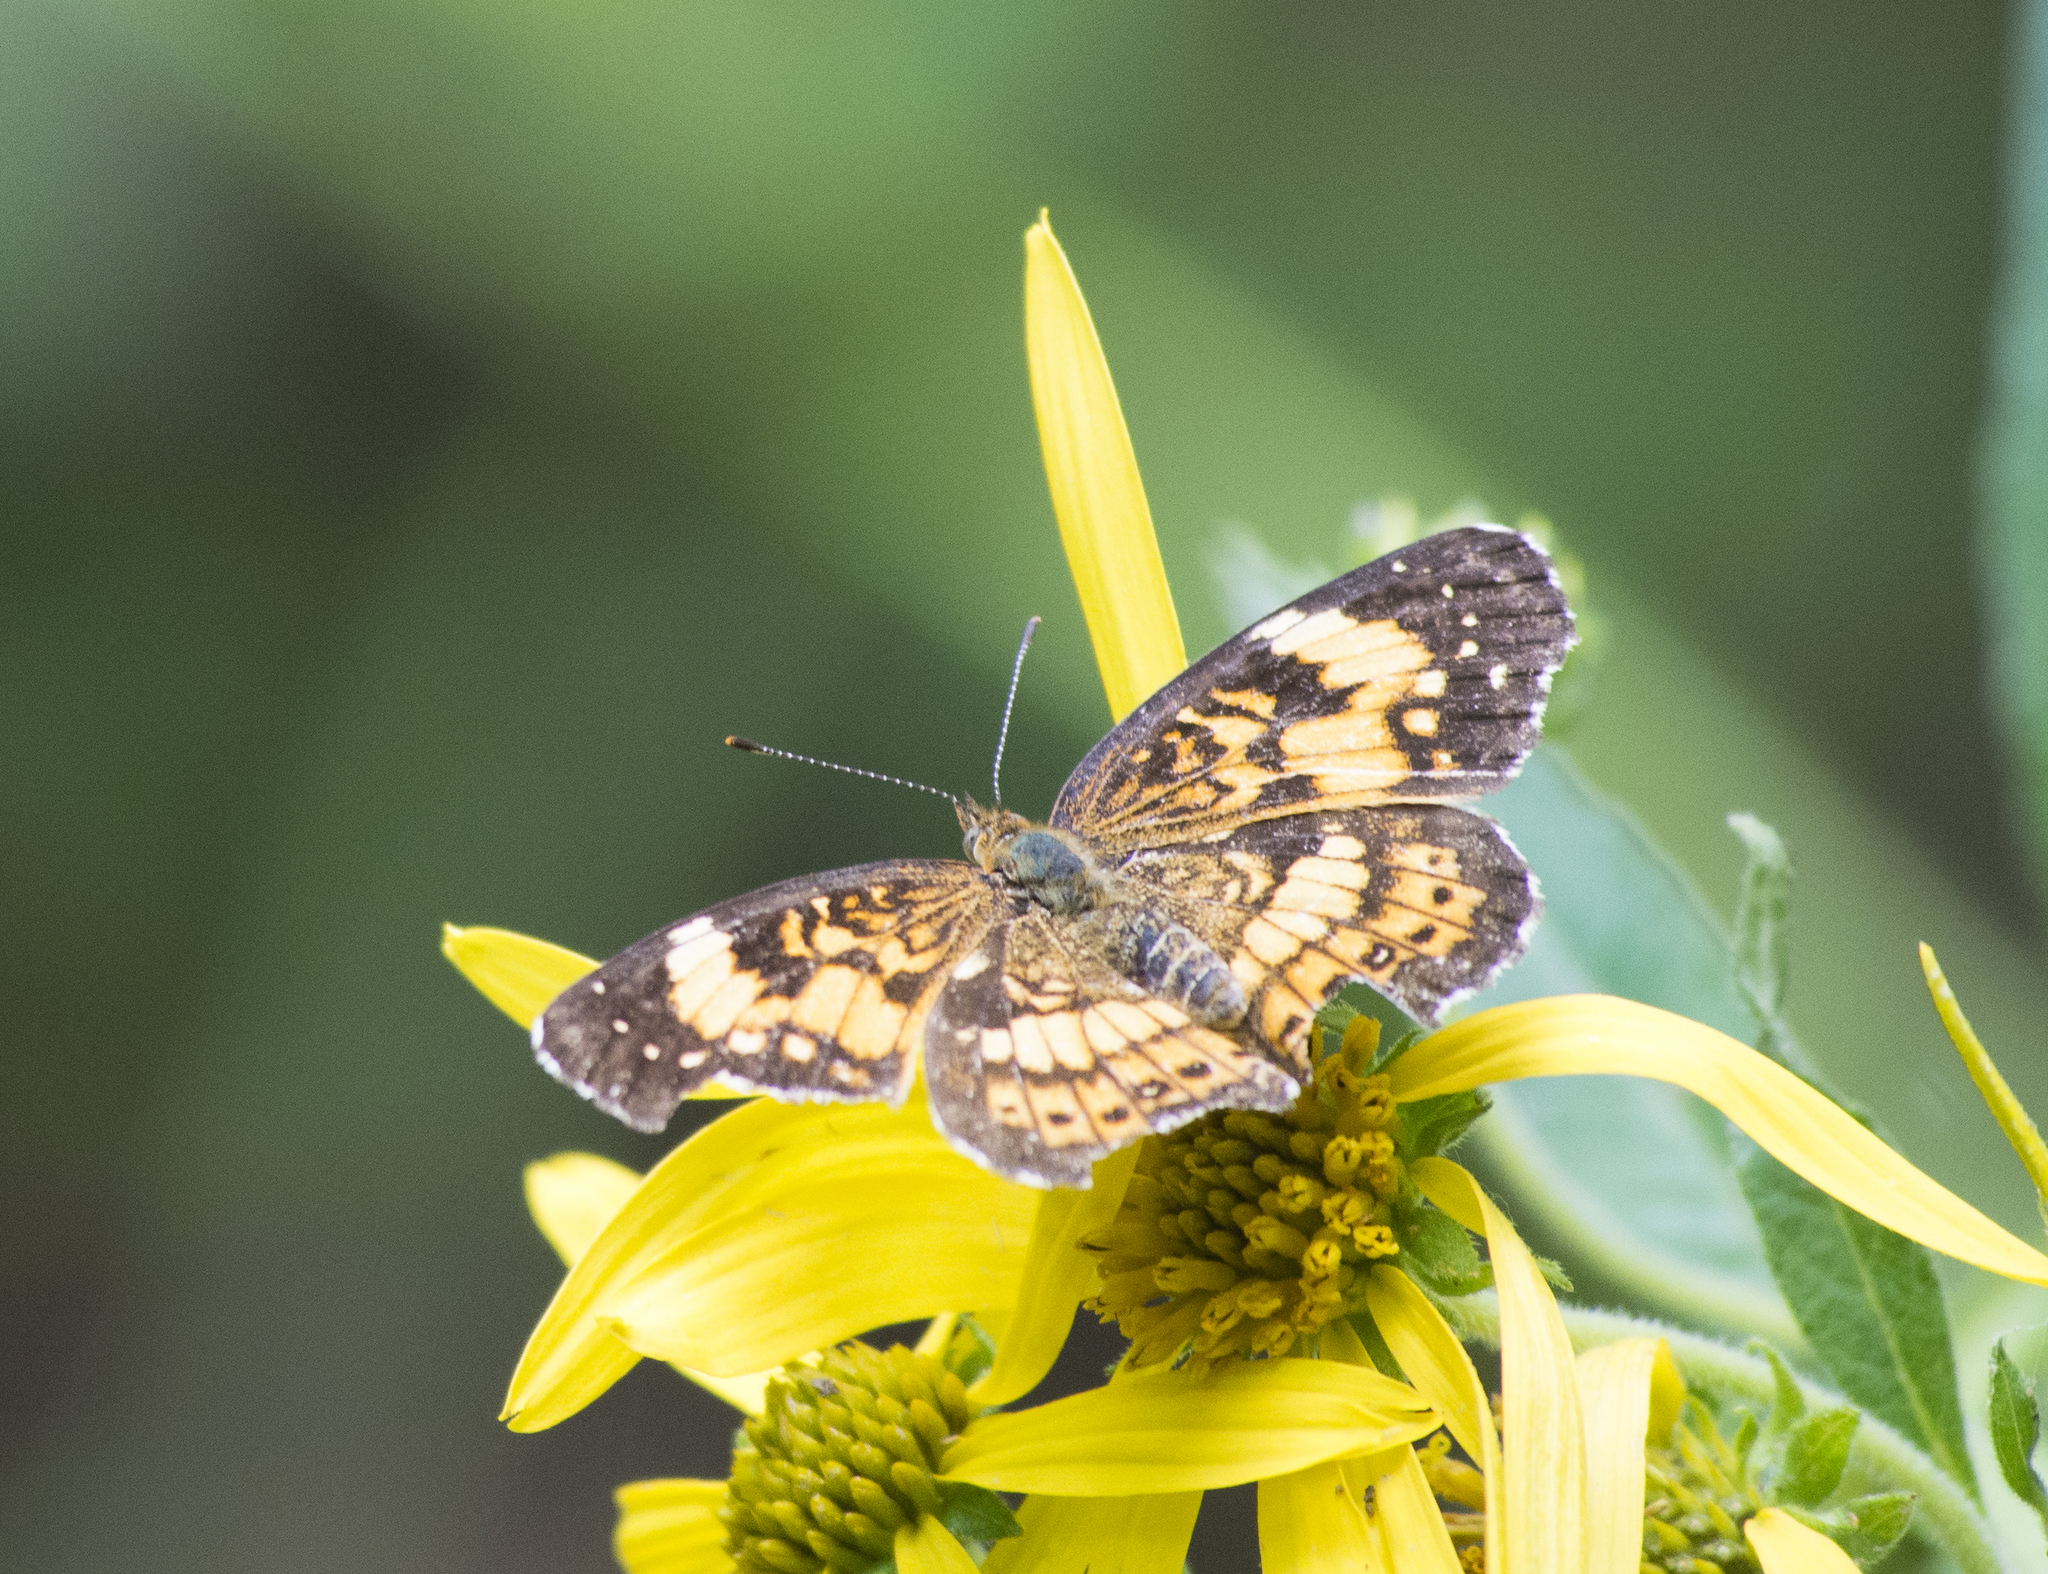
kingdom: Animalia
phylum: Arthropoda
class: Insecta
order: Lepidoptera
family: Nymphalidae
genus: Chlosyne
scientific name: Chlosyne nycteis
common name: Silvery checkerspot
